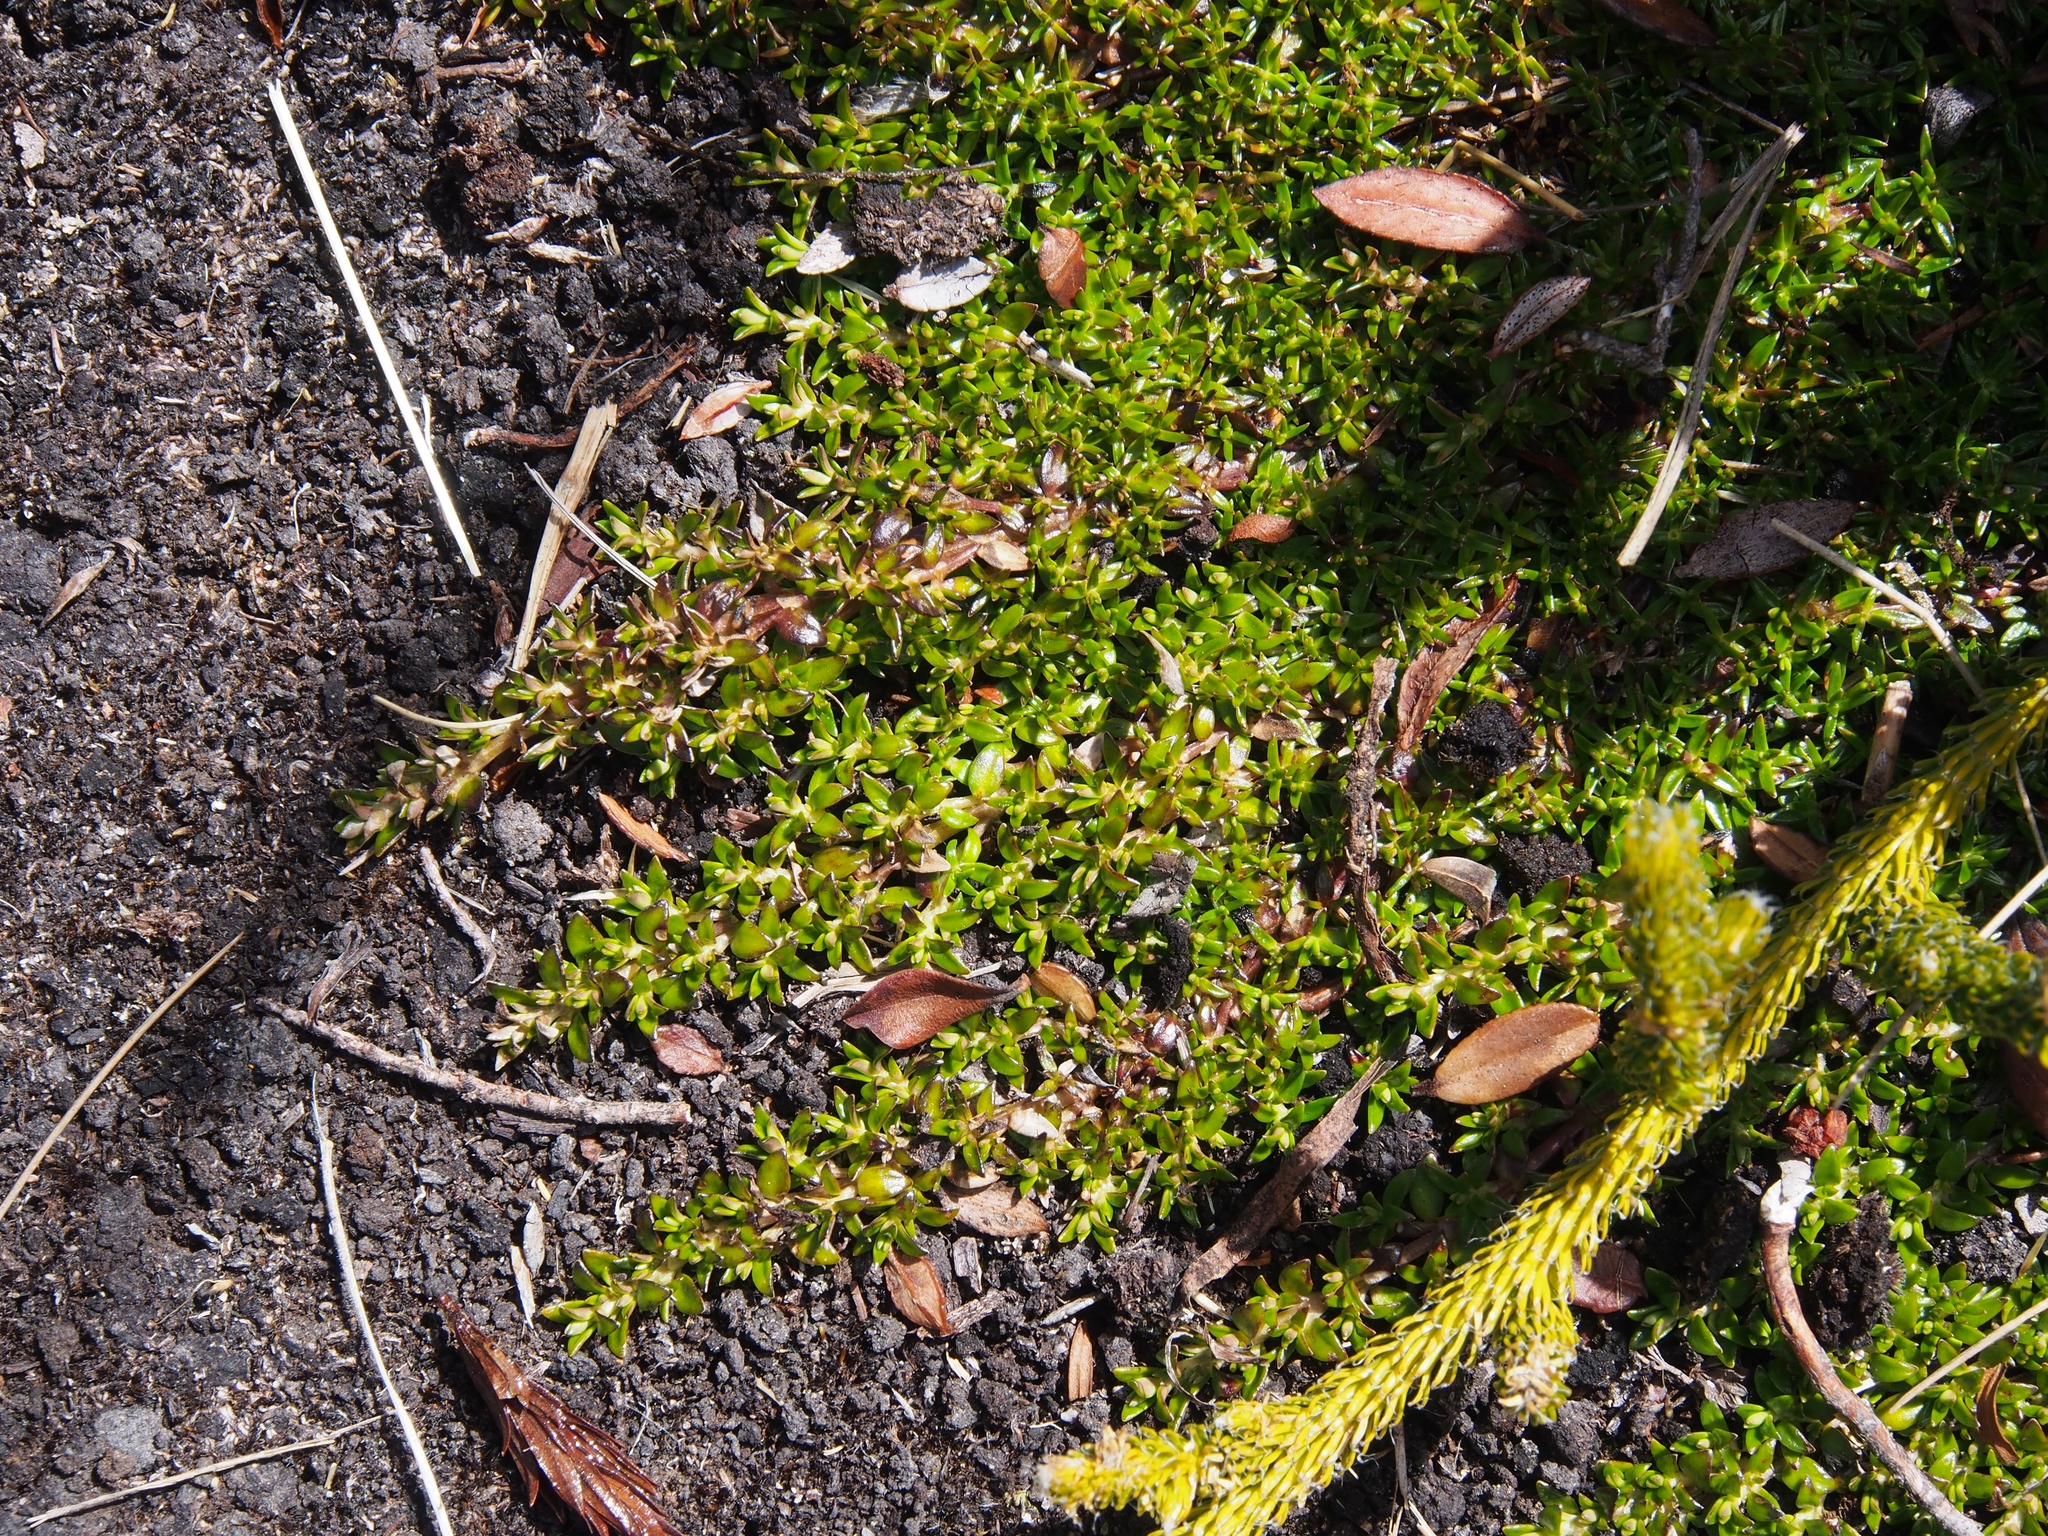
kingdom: Plantae
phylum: Tracheophyta
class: Magnoliopsida
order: Gentianales
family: Rubiaceae
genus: Arcytophyllum
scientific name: Arcytophyllum muticum
